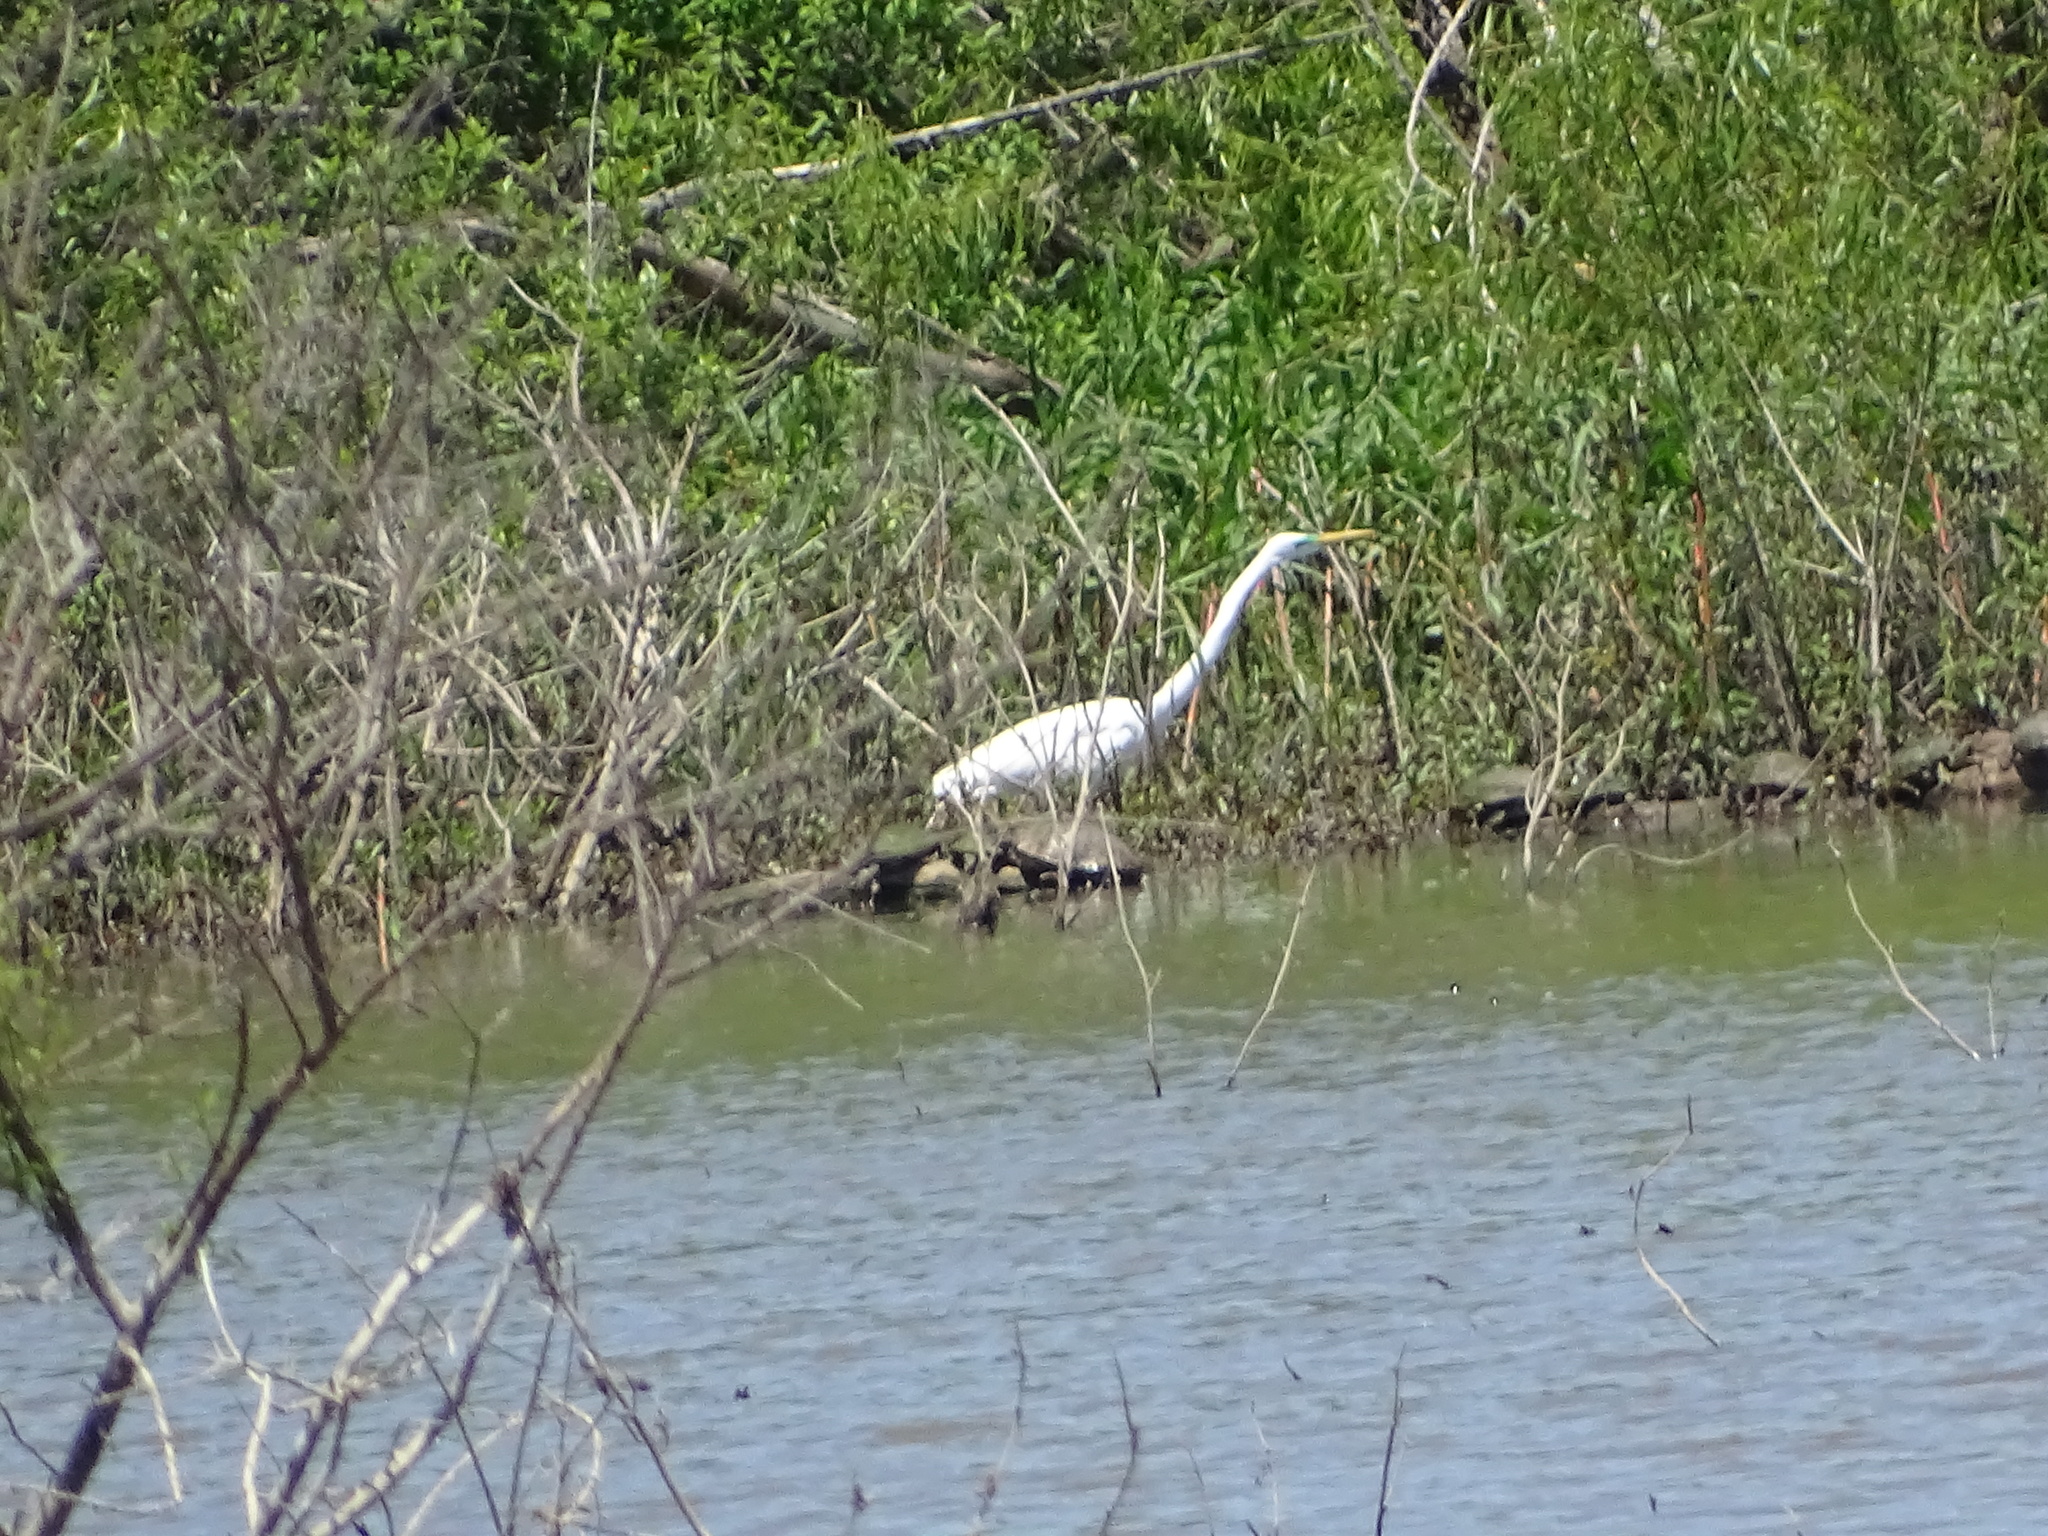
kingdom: Animalia
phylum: Chordata
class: Aves
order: Pelecaniformes
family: Ardeidae
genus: Ardea
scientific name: Ardea alba
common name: Great egret
